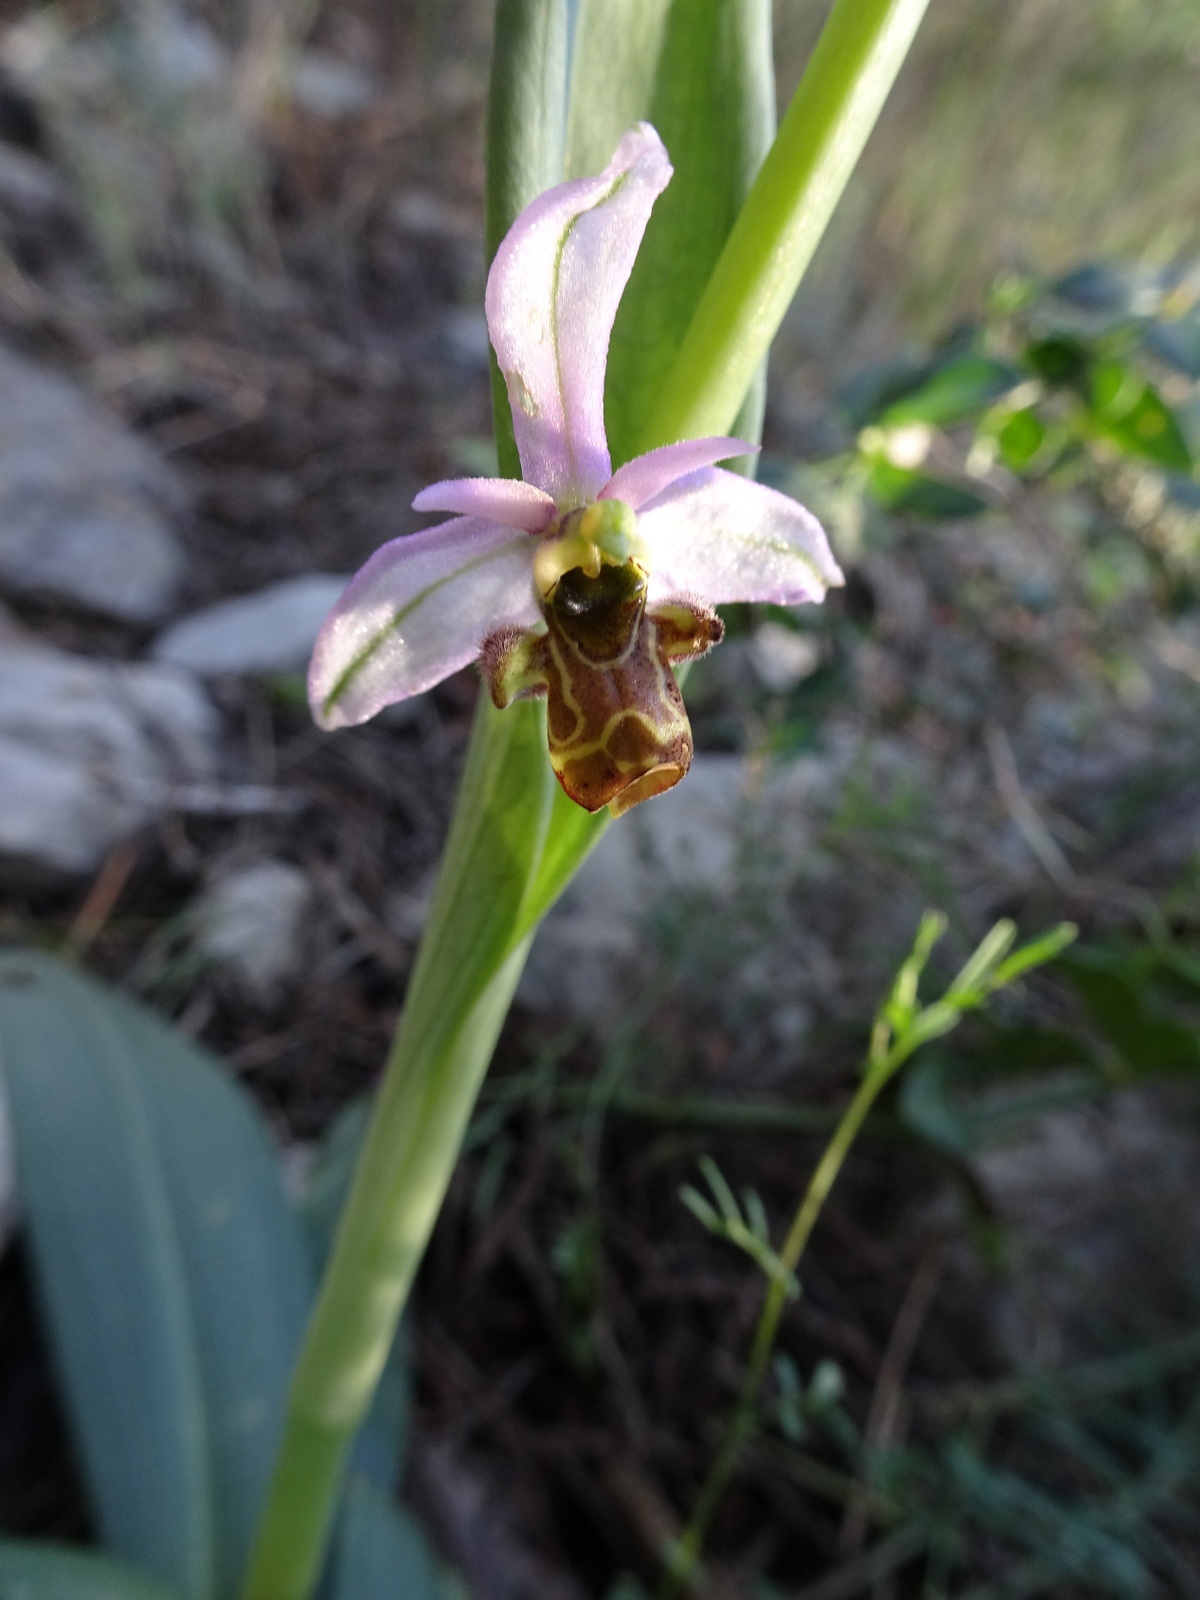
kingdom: Plantae
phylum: Tracheophyta
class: Liliopsida
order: Asparagales
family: Orchidaceae
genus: Ophrys
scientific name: Ophrys scolopax
